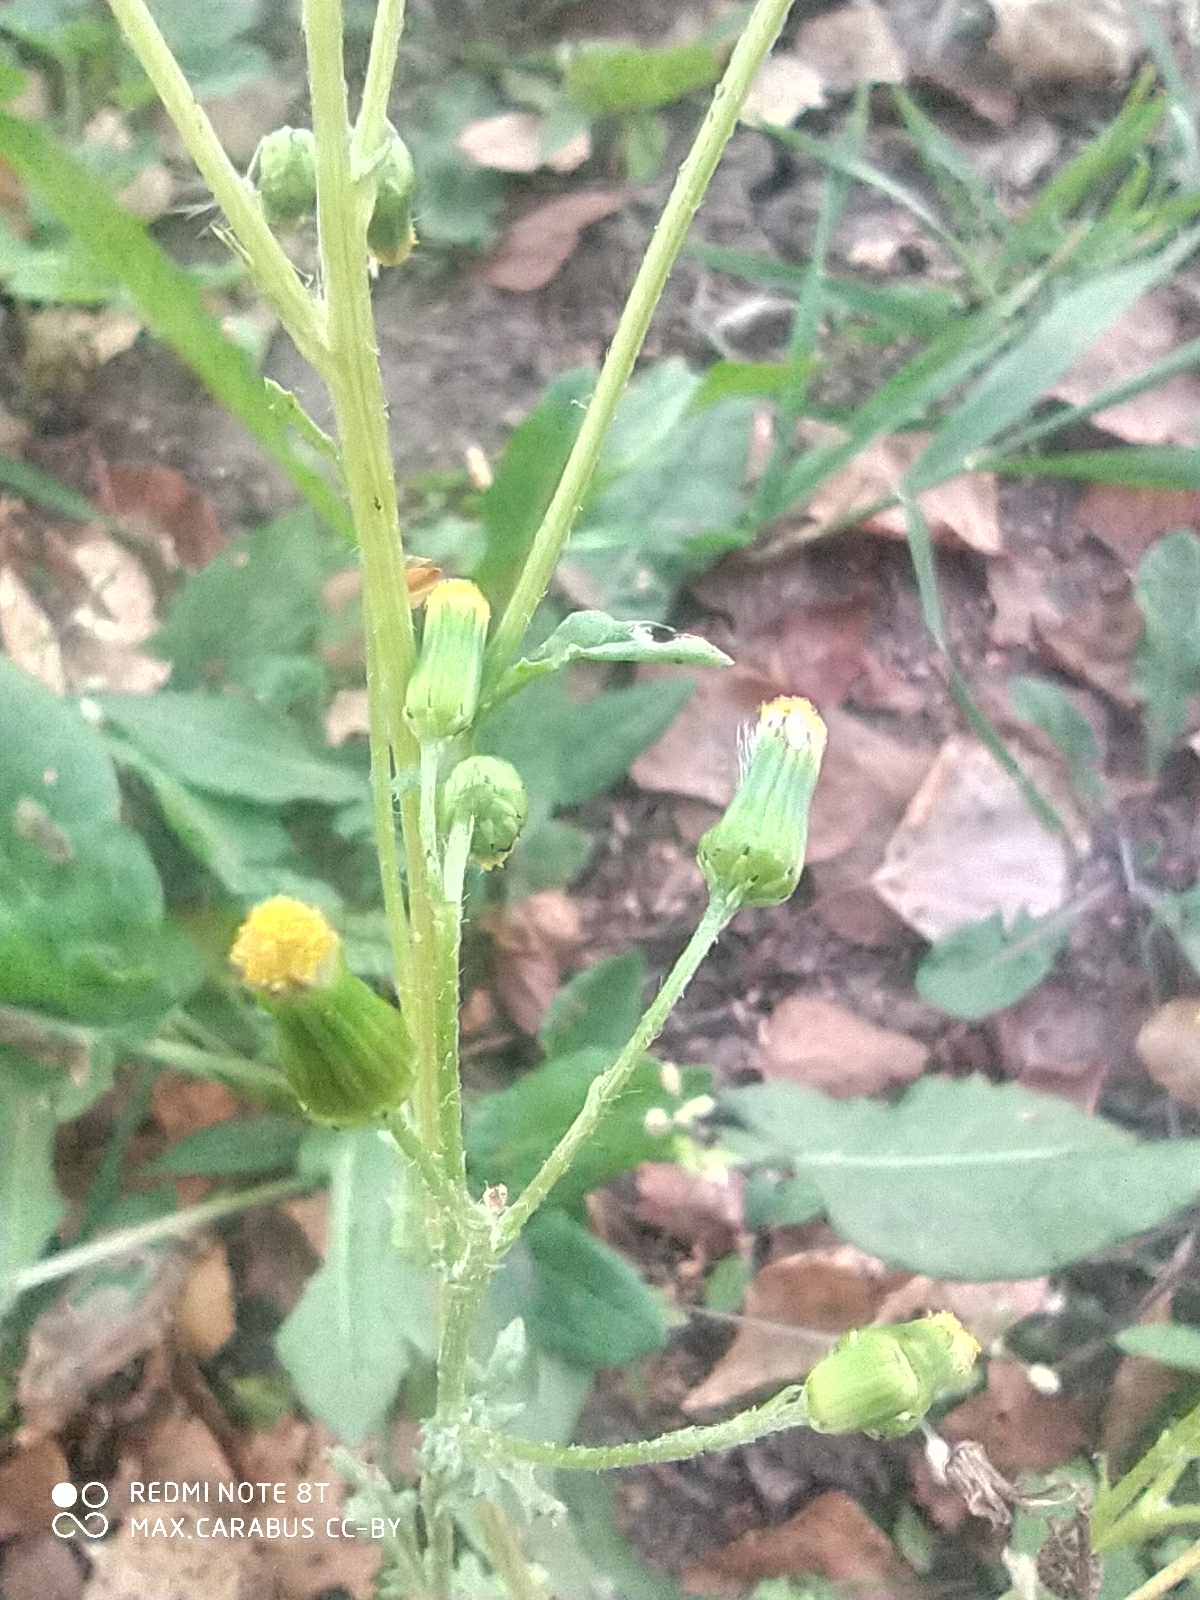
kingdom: Plantae
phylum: Tracheophyta
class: Magnoliopsida
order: Asterales
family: Asteraceae
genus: Senecio
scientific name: Senecio vulgaris
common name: Old-man-in-the-spring
